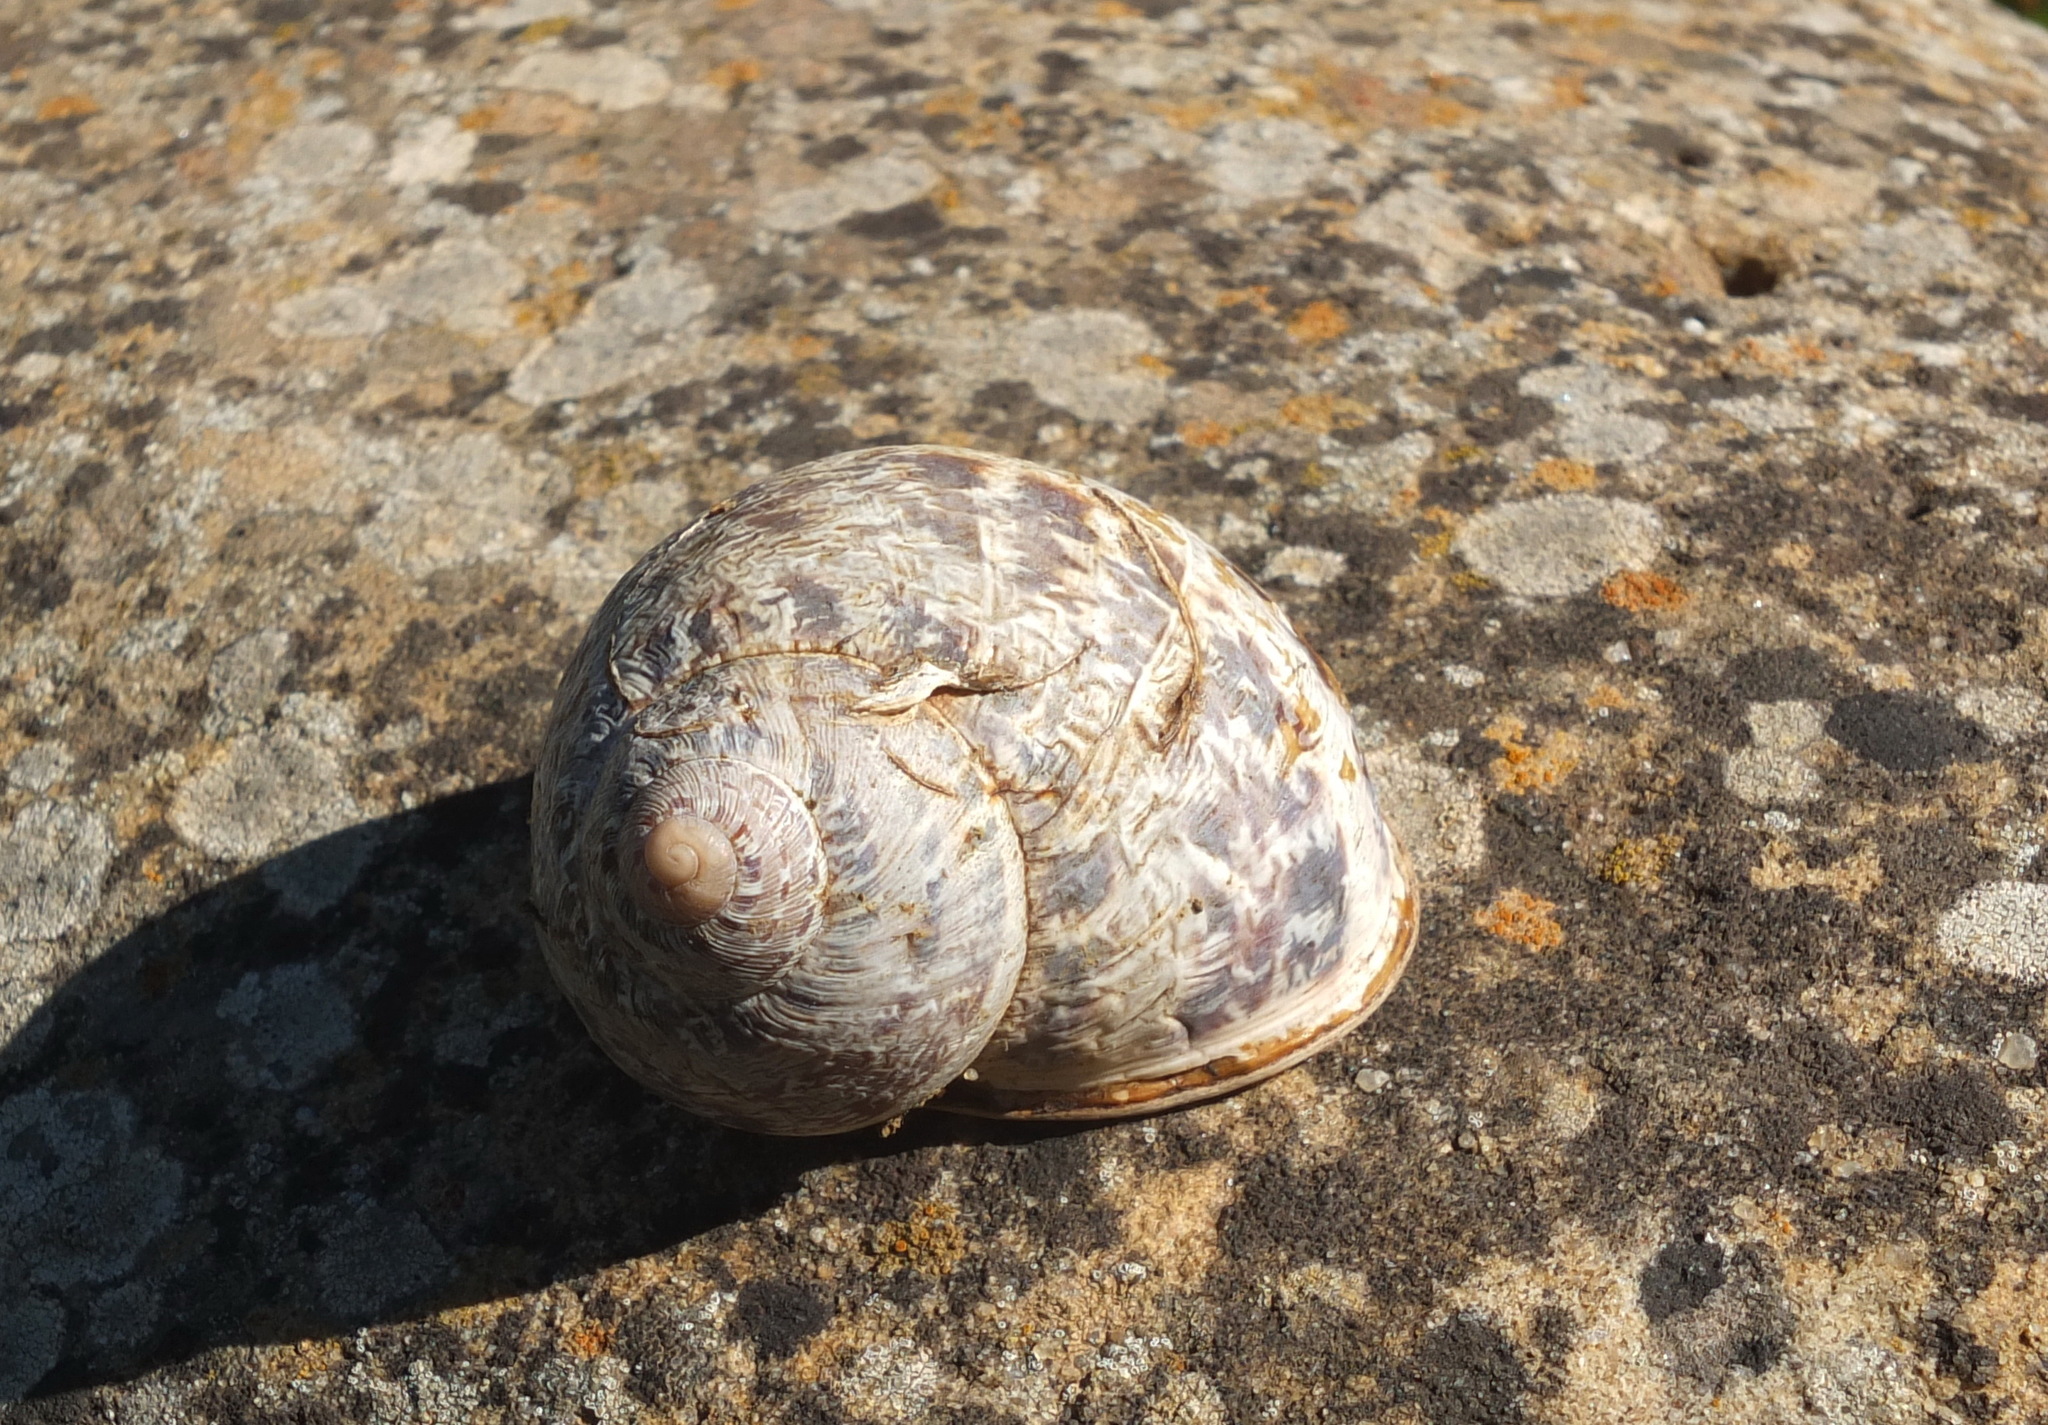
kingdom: Animalia
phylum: Mollusca
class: Gastropoda
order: Stylommatophora
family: Helicidae
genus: Cornu
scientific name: Cornu aspersum
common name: Brown garden snail
